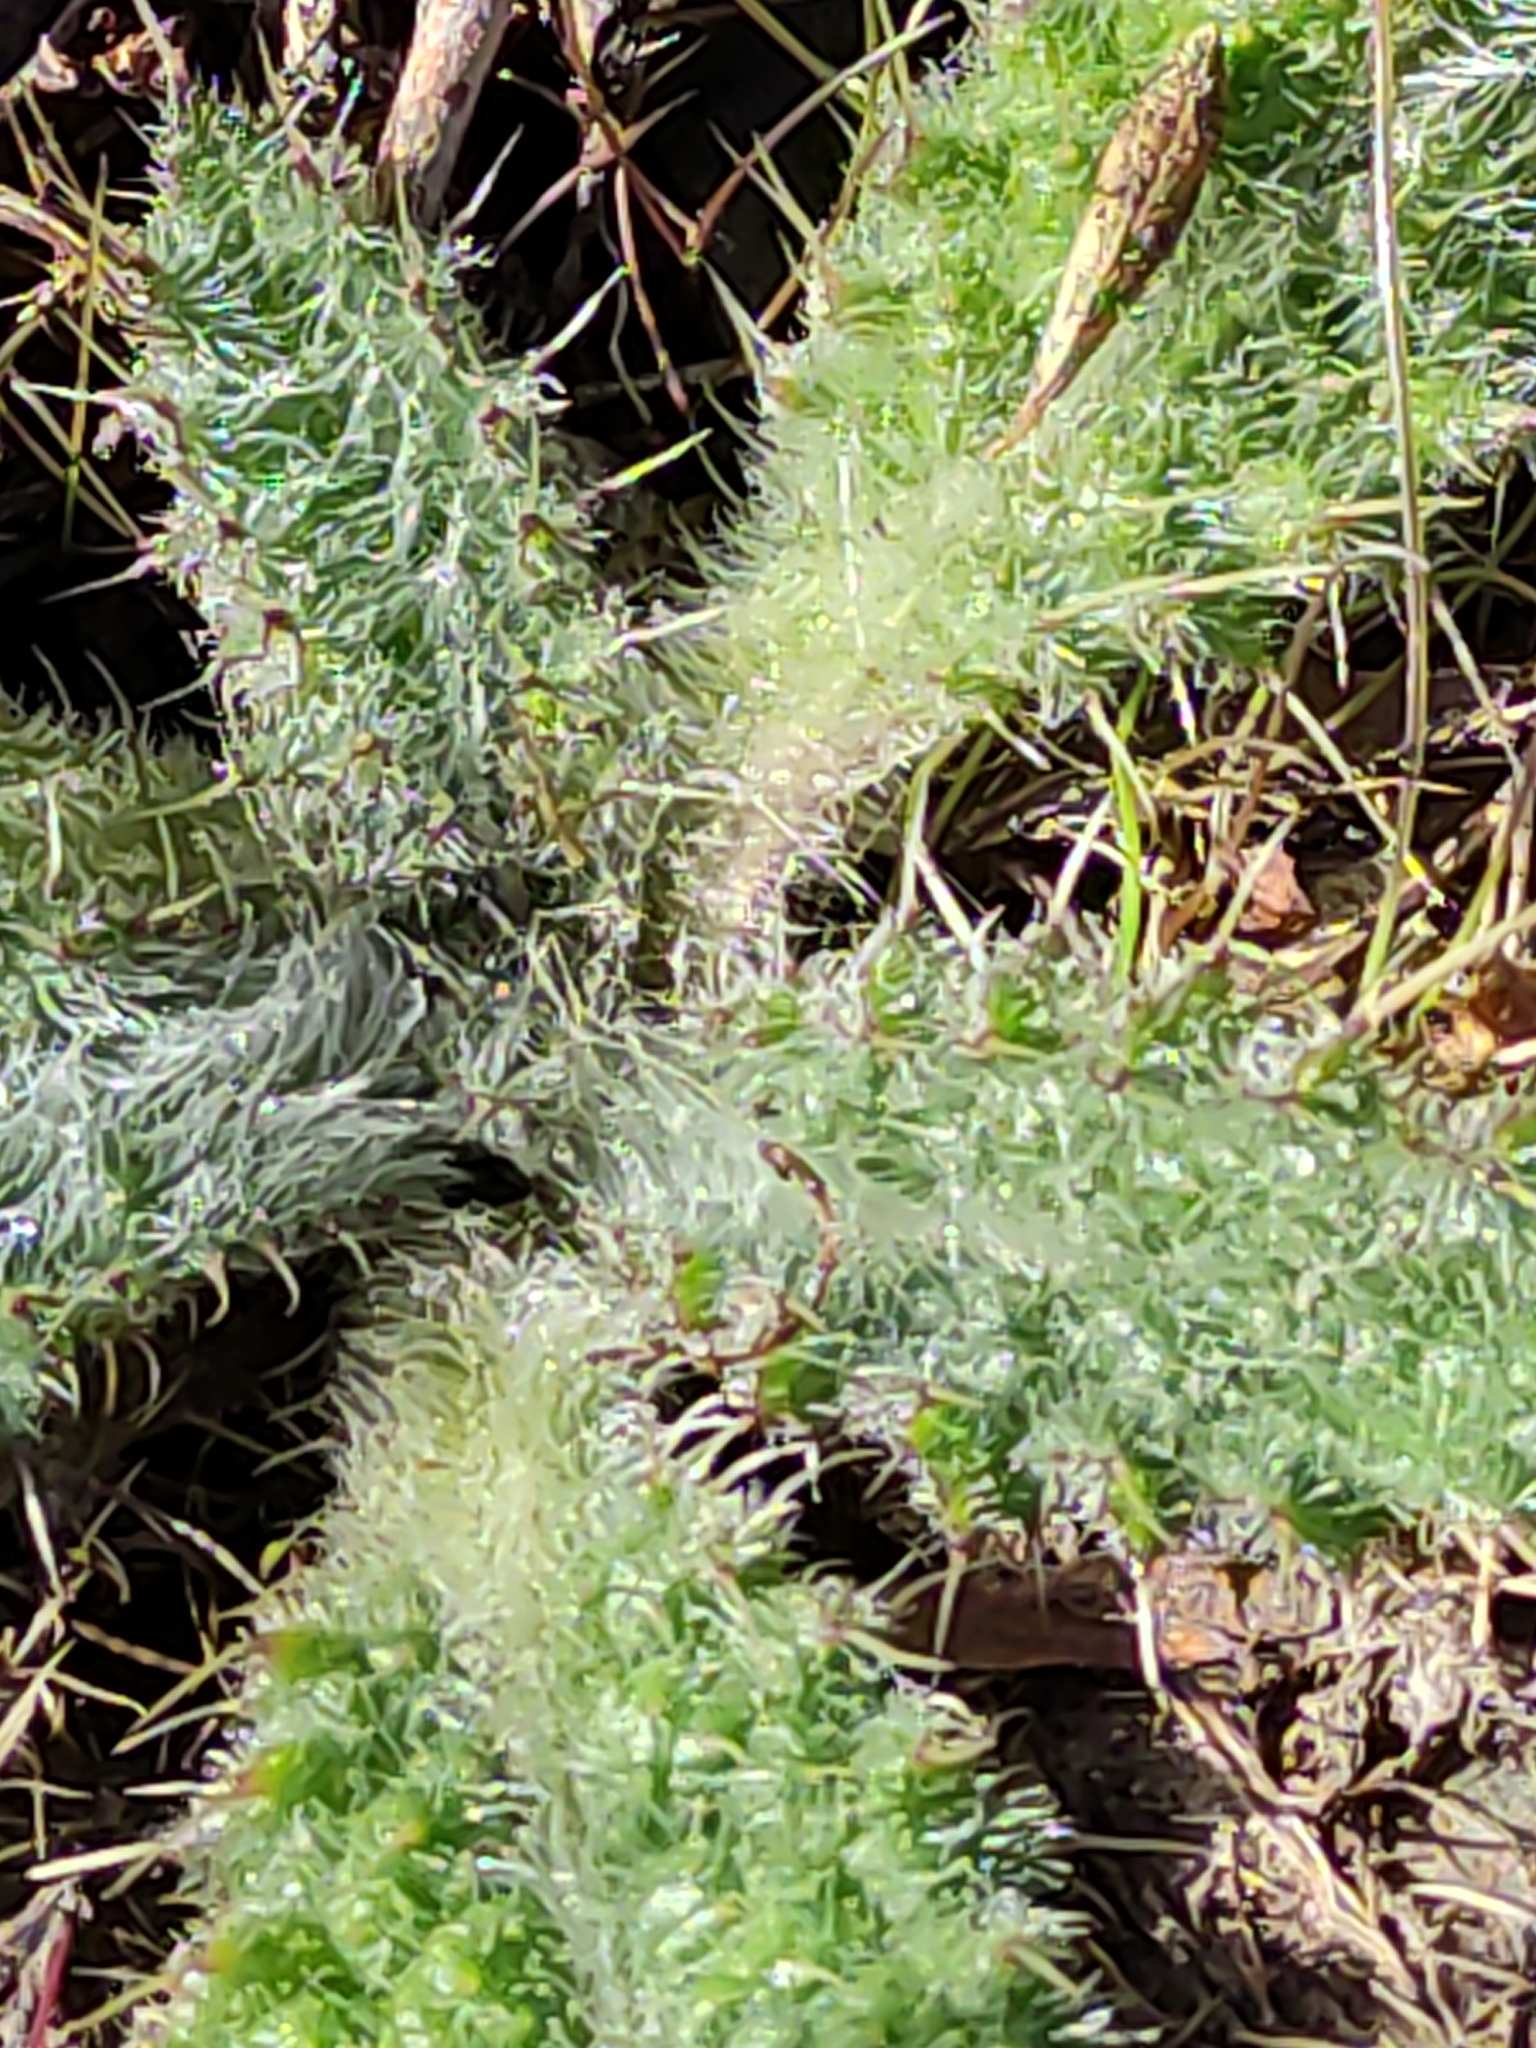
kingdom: Plantae
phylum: Tracheophyta
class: Magnoliopsida
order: Asterales
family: Asteraceae
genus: Cirsium
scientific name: Cirsium vulgare
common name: Bull thistle
